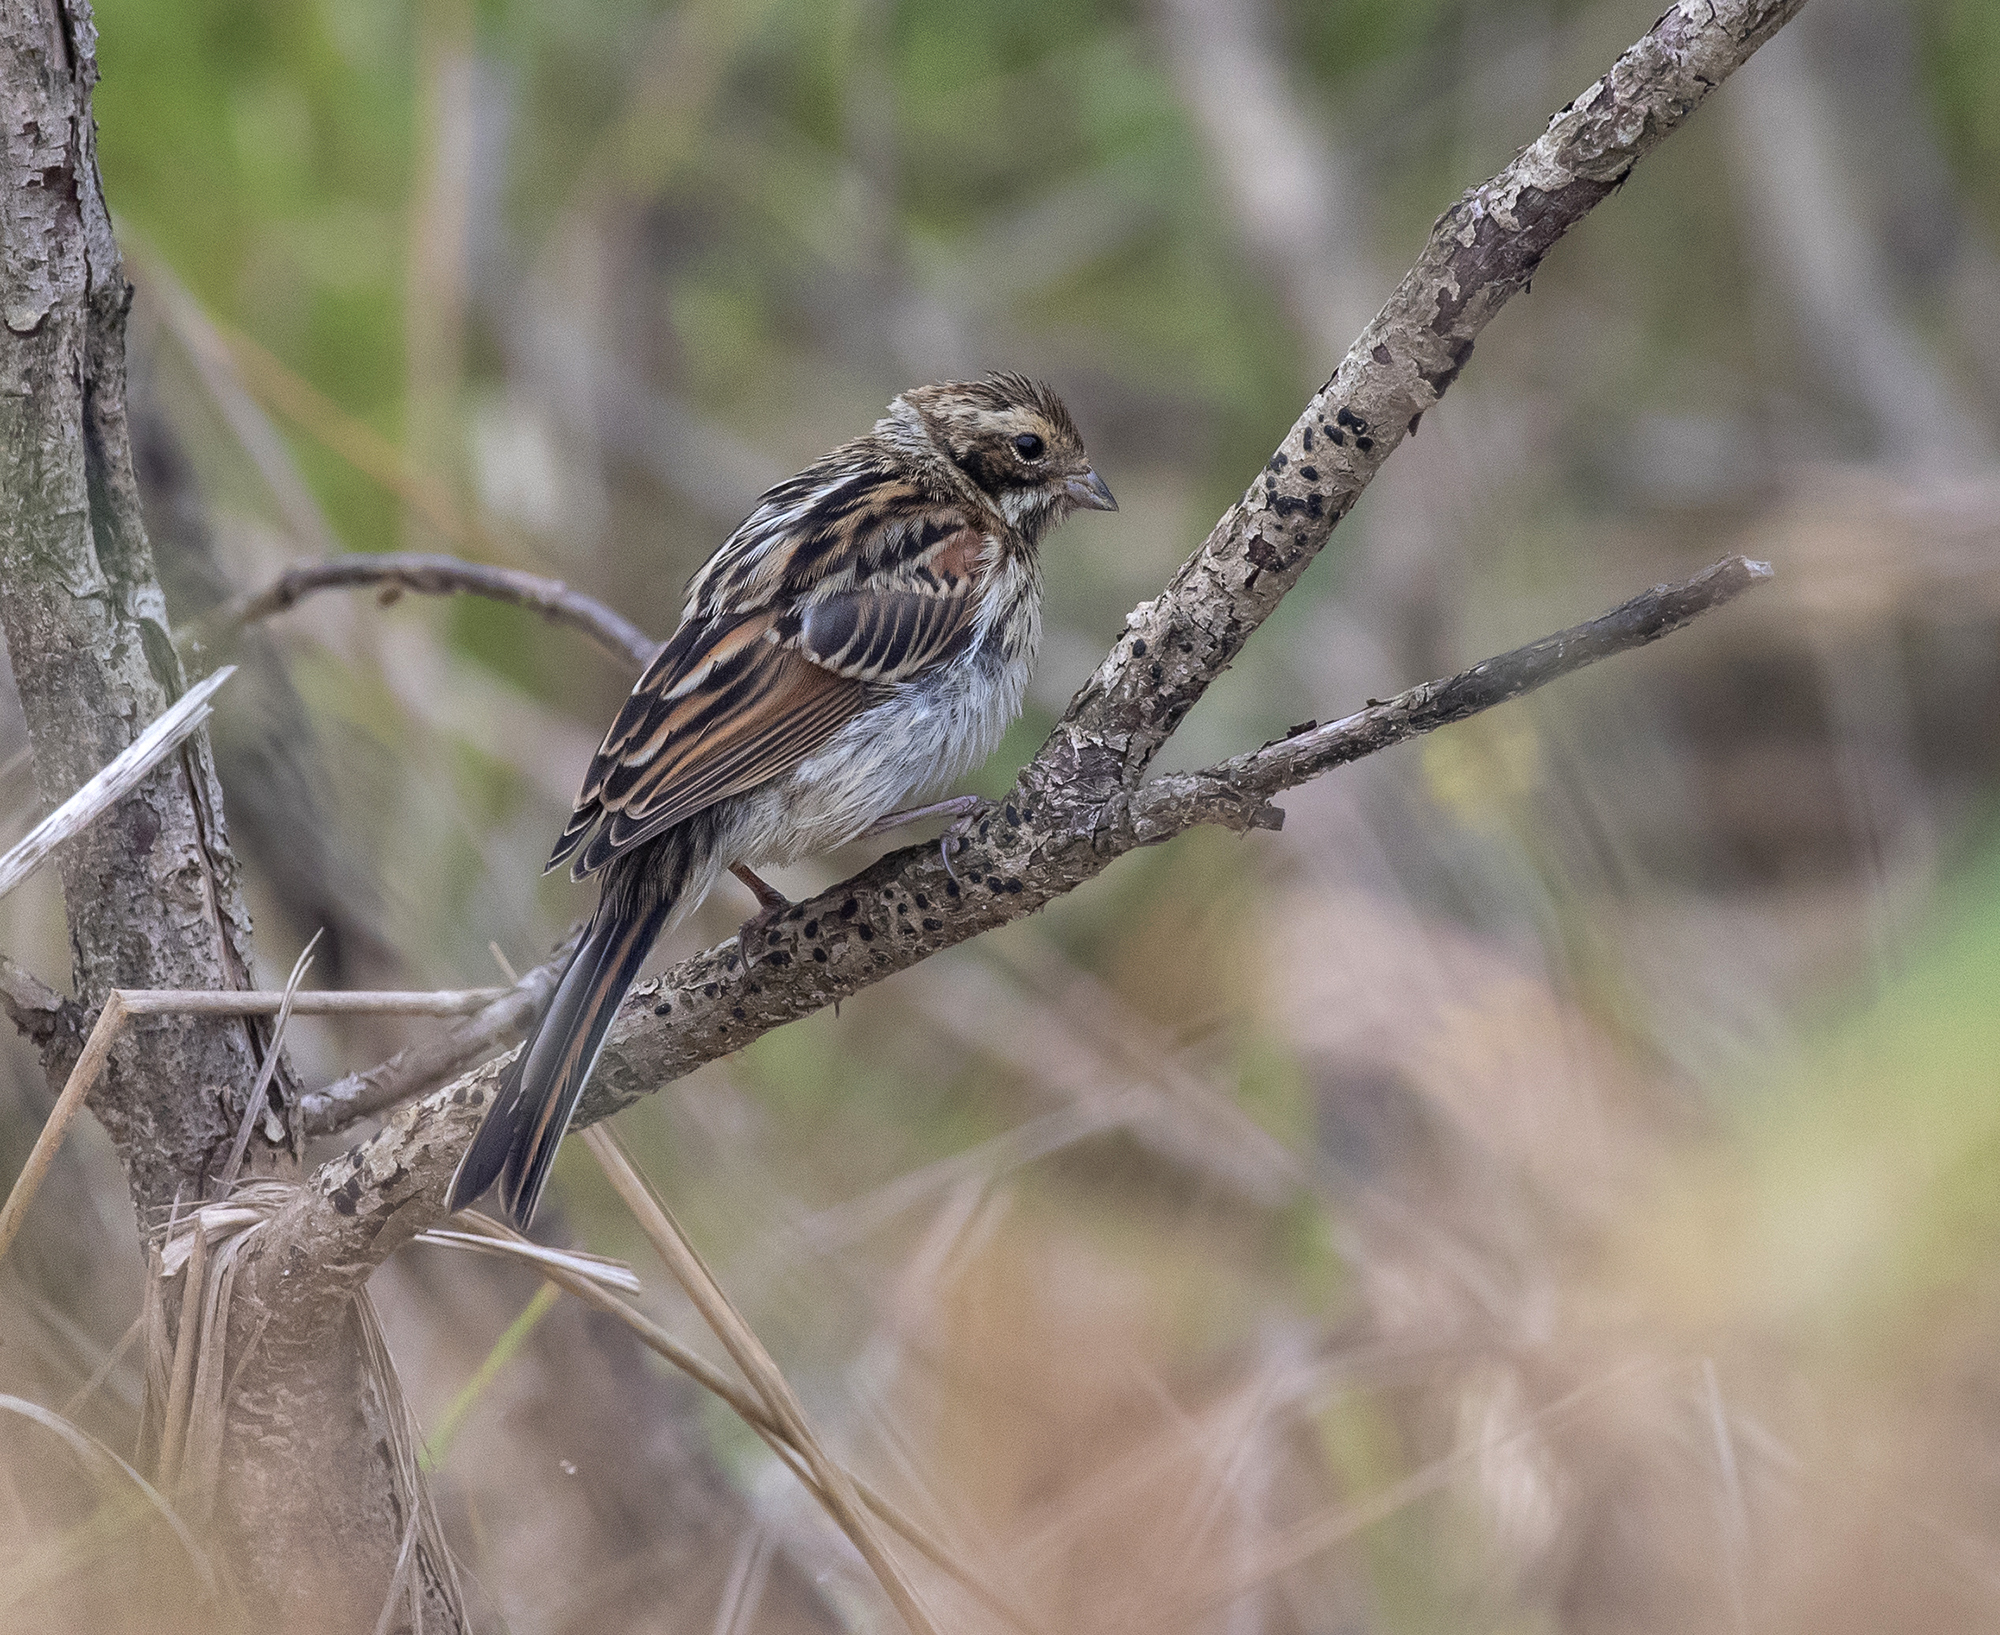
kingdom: Animalia
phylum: Chordata
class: Aves
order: Passeriformes
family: Emberizidae
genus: Emberiza
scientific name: Emberiza schoeniclus
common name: Reed bunting
